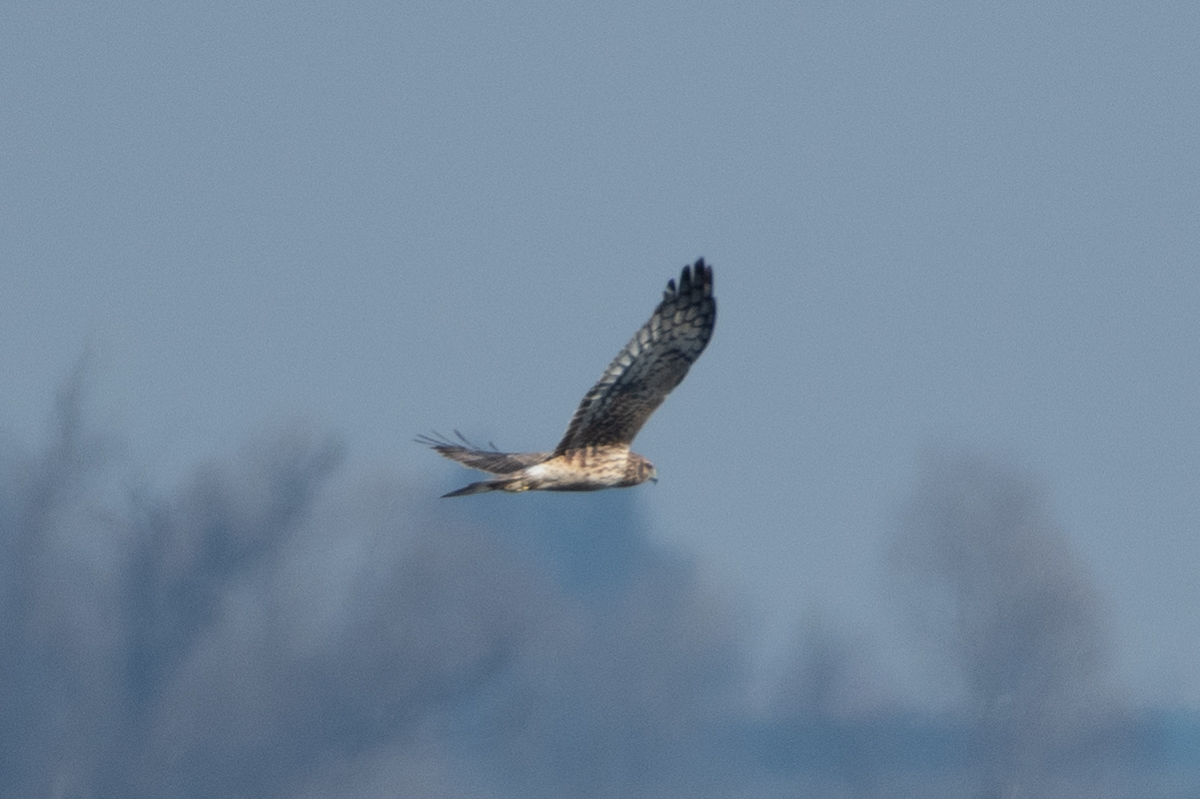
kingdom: Animalia
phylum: Chordata
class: Aves
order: Accipitriformes
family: Accipitridae
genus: Circus
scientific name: Circus cyaneus
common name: Hen harrier
